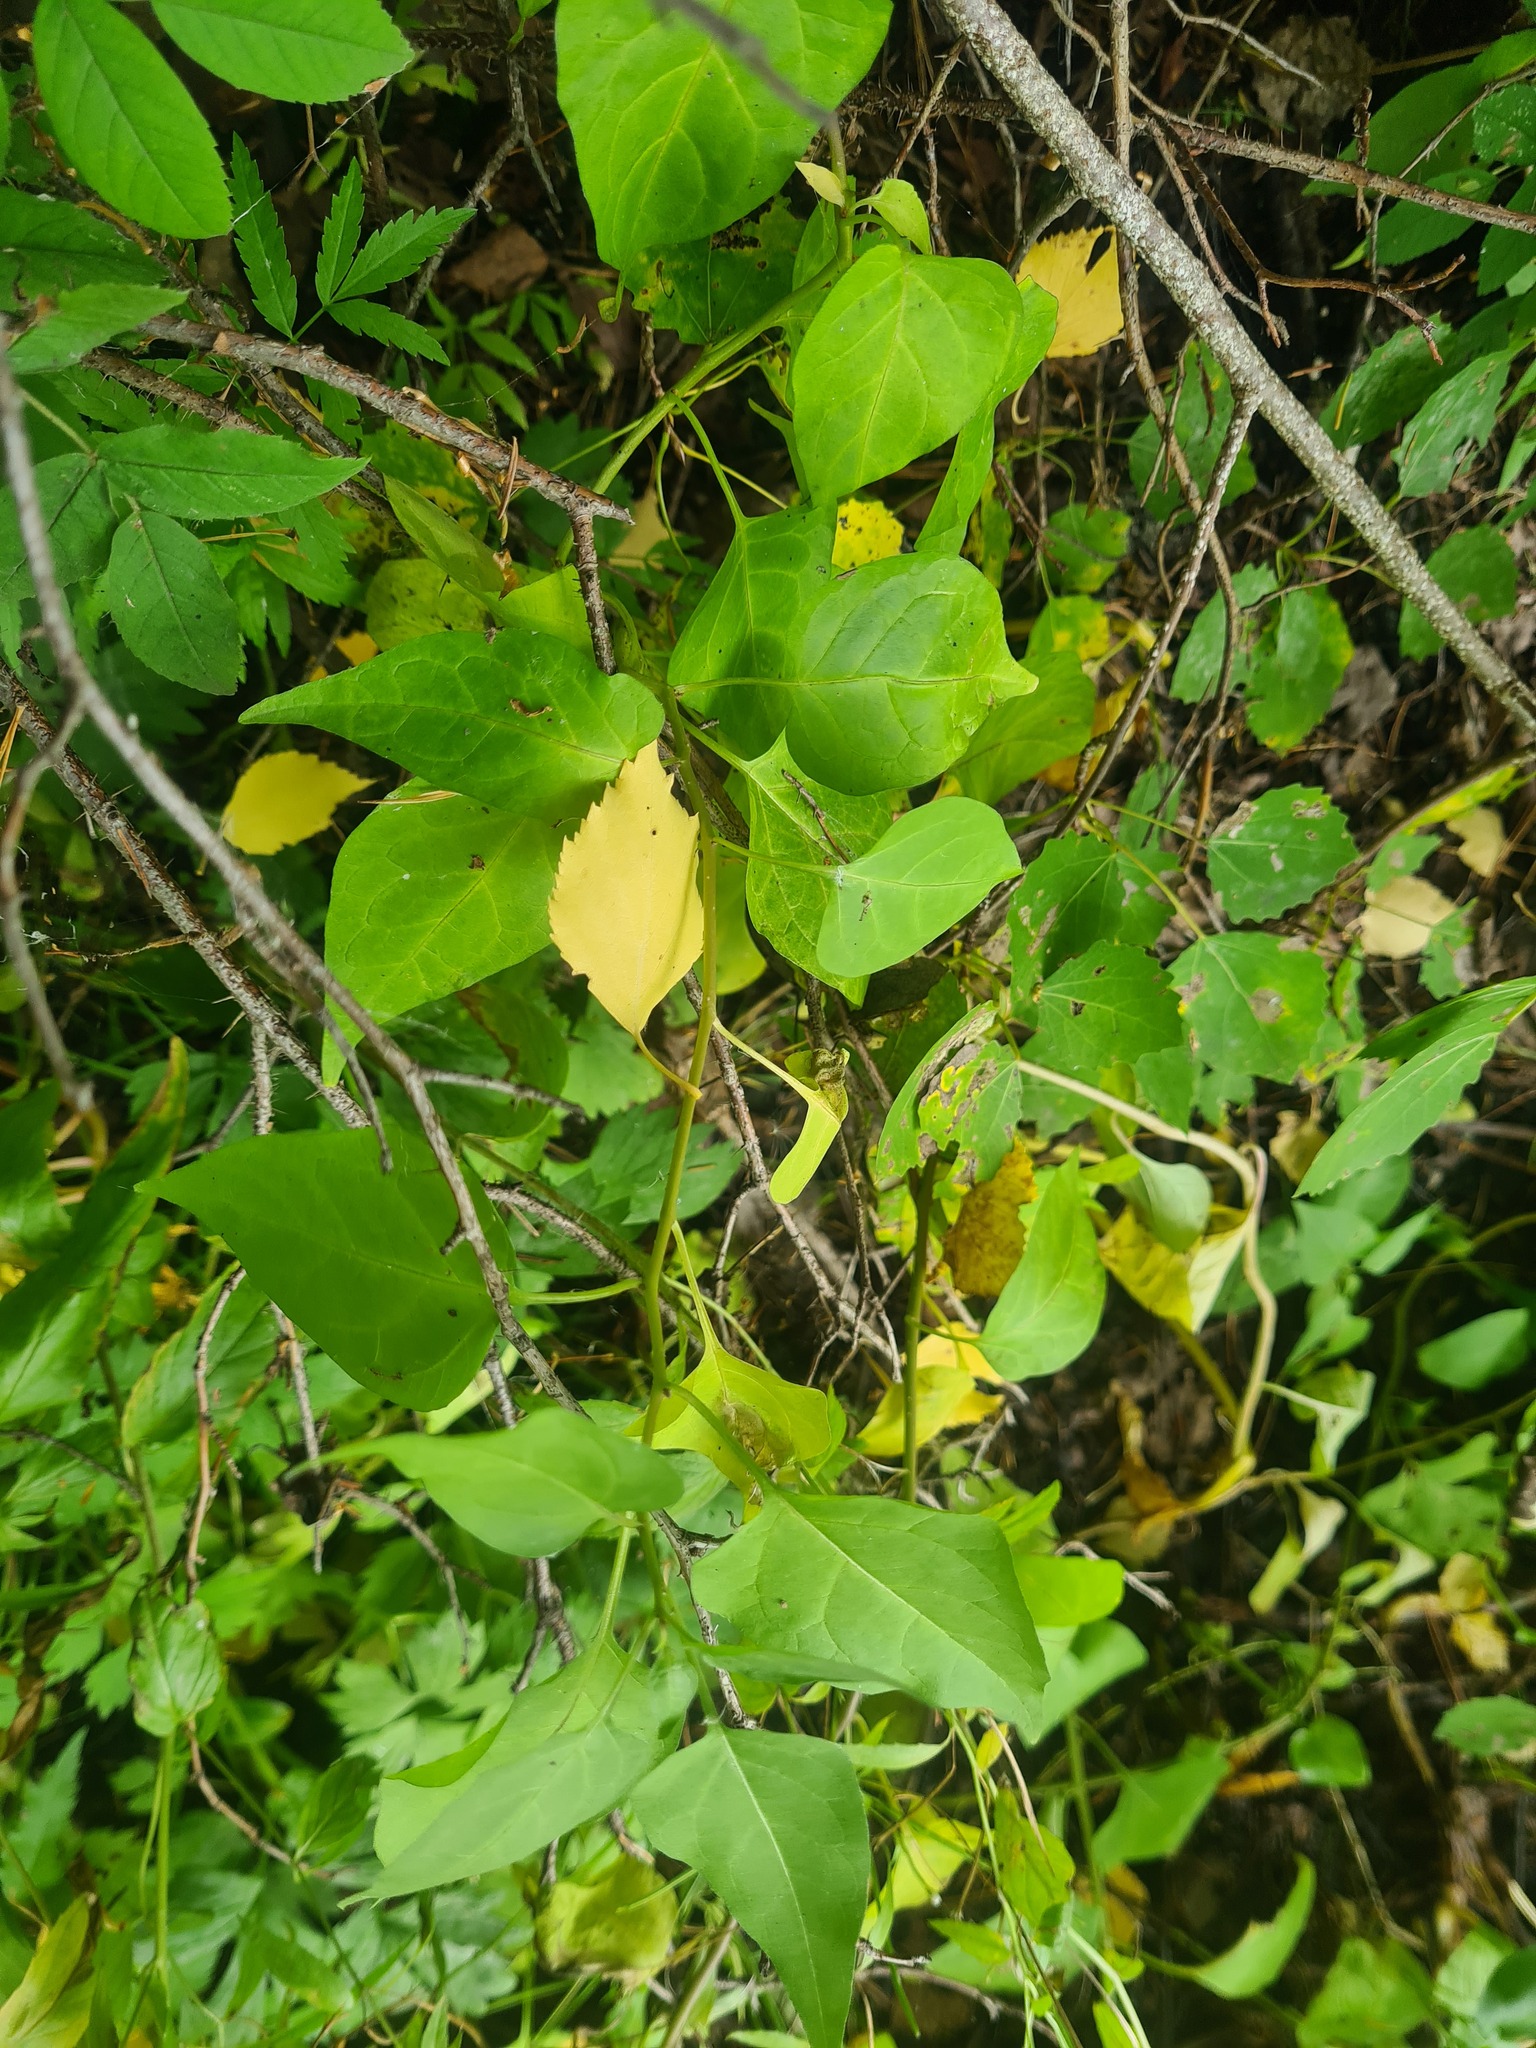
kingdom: Plantae
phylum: Tracheophyta
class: Magnoliopsida
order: Solanales
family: Solanaceae
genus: Solanum
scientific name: Solanum dulcamara
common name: Climbing nightshade
